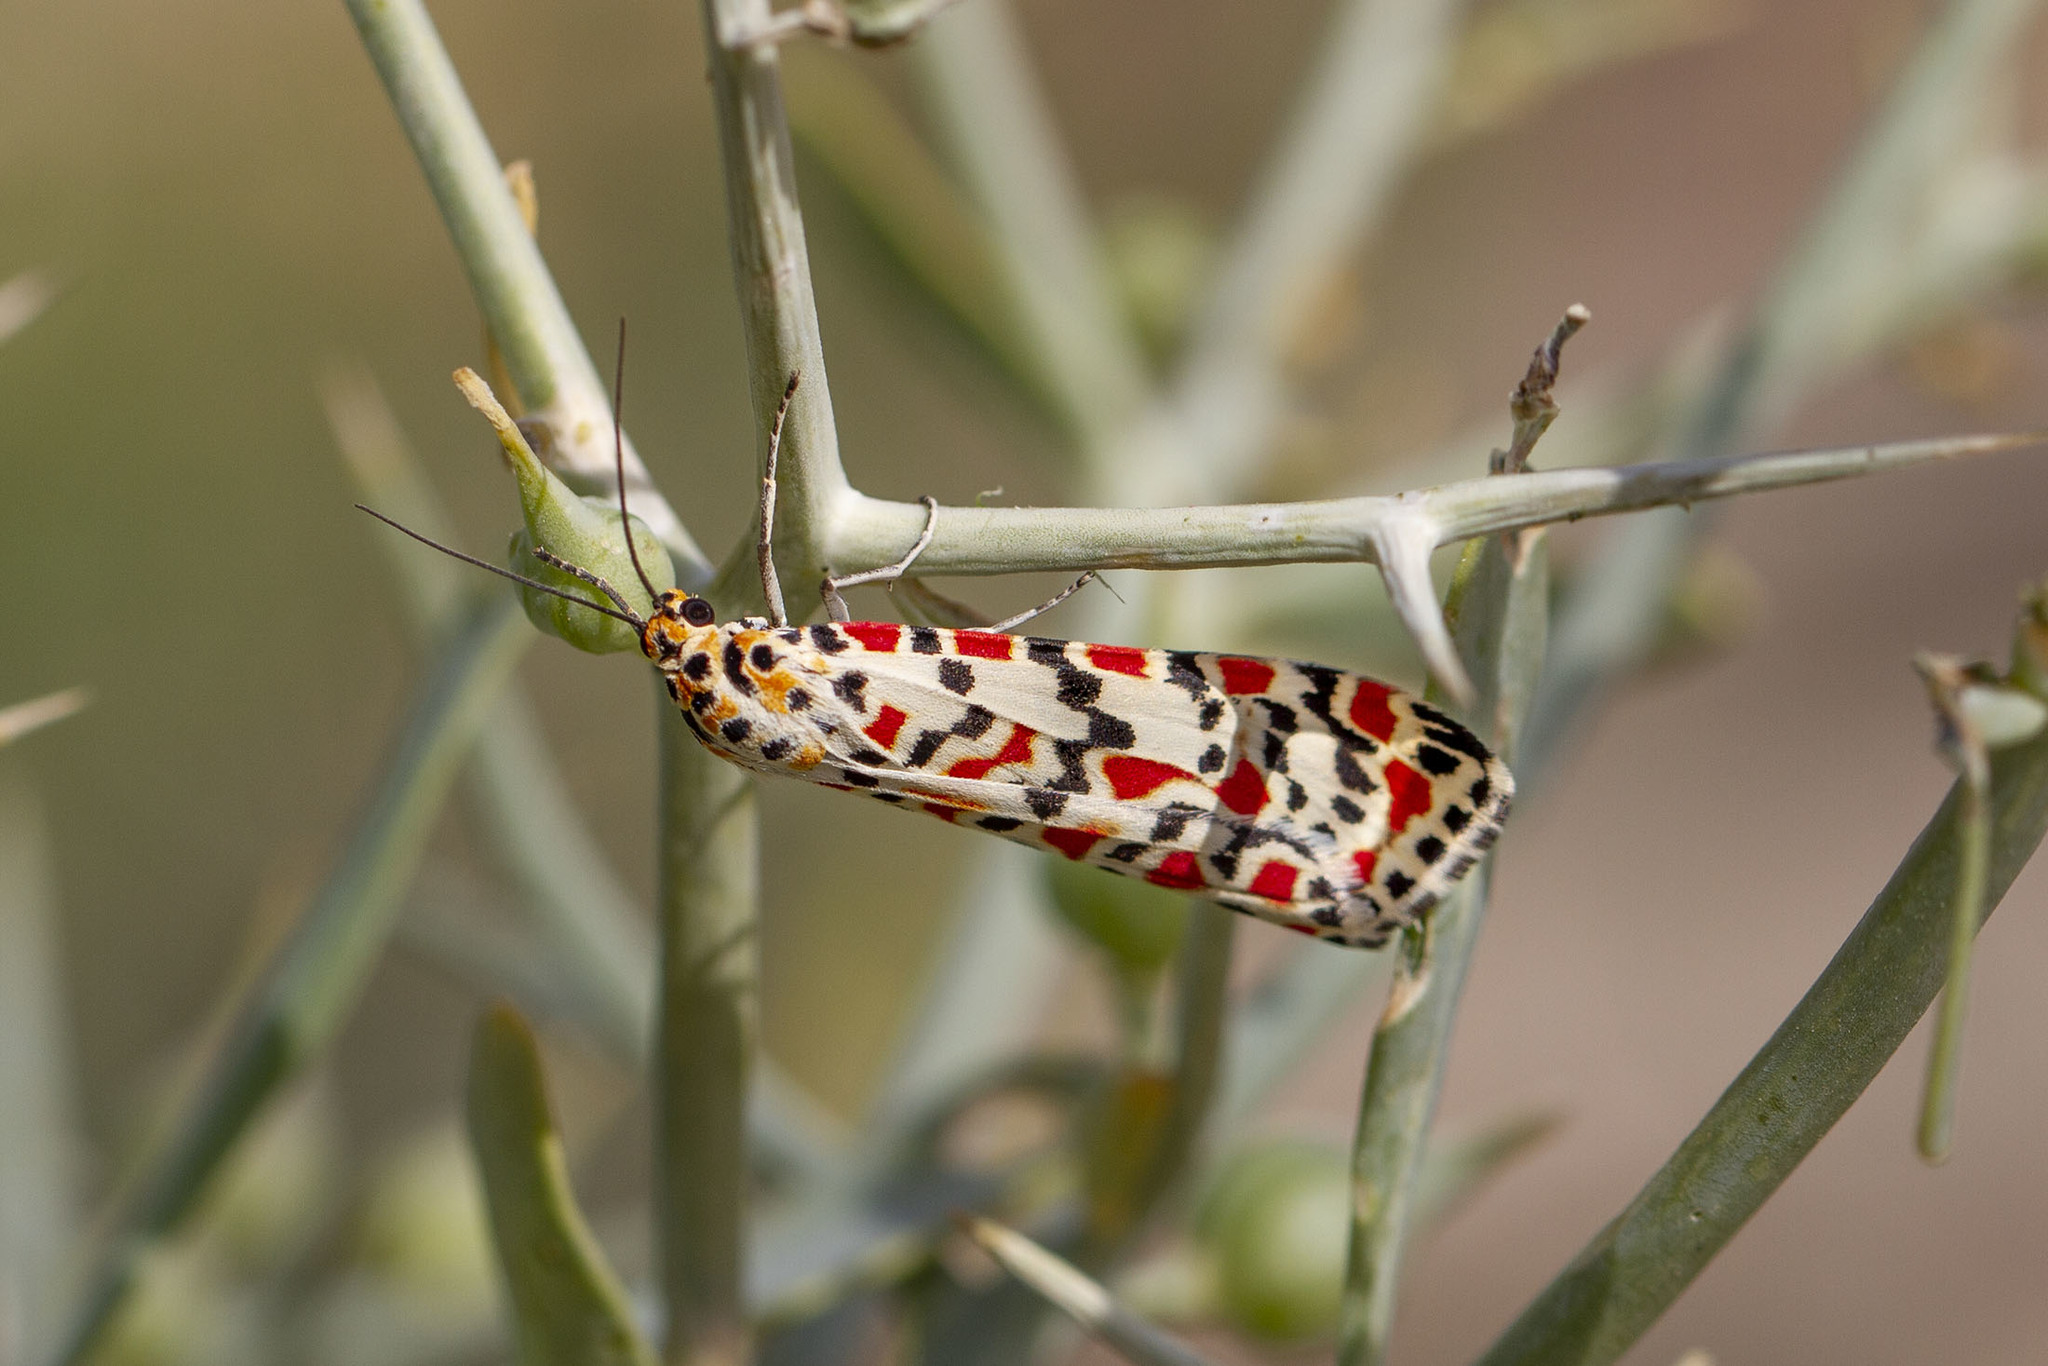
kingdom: Animalia
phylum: Arthropoda
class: Insecta
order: Lepidoptera
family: Erebidae
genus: Utetheisa
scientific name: Utetheisa pulchella
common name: Crimson speckled
